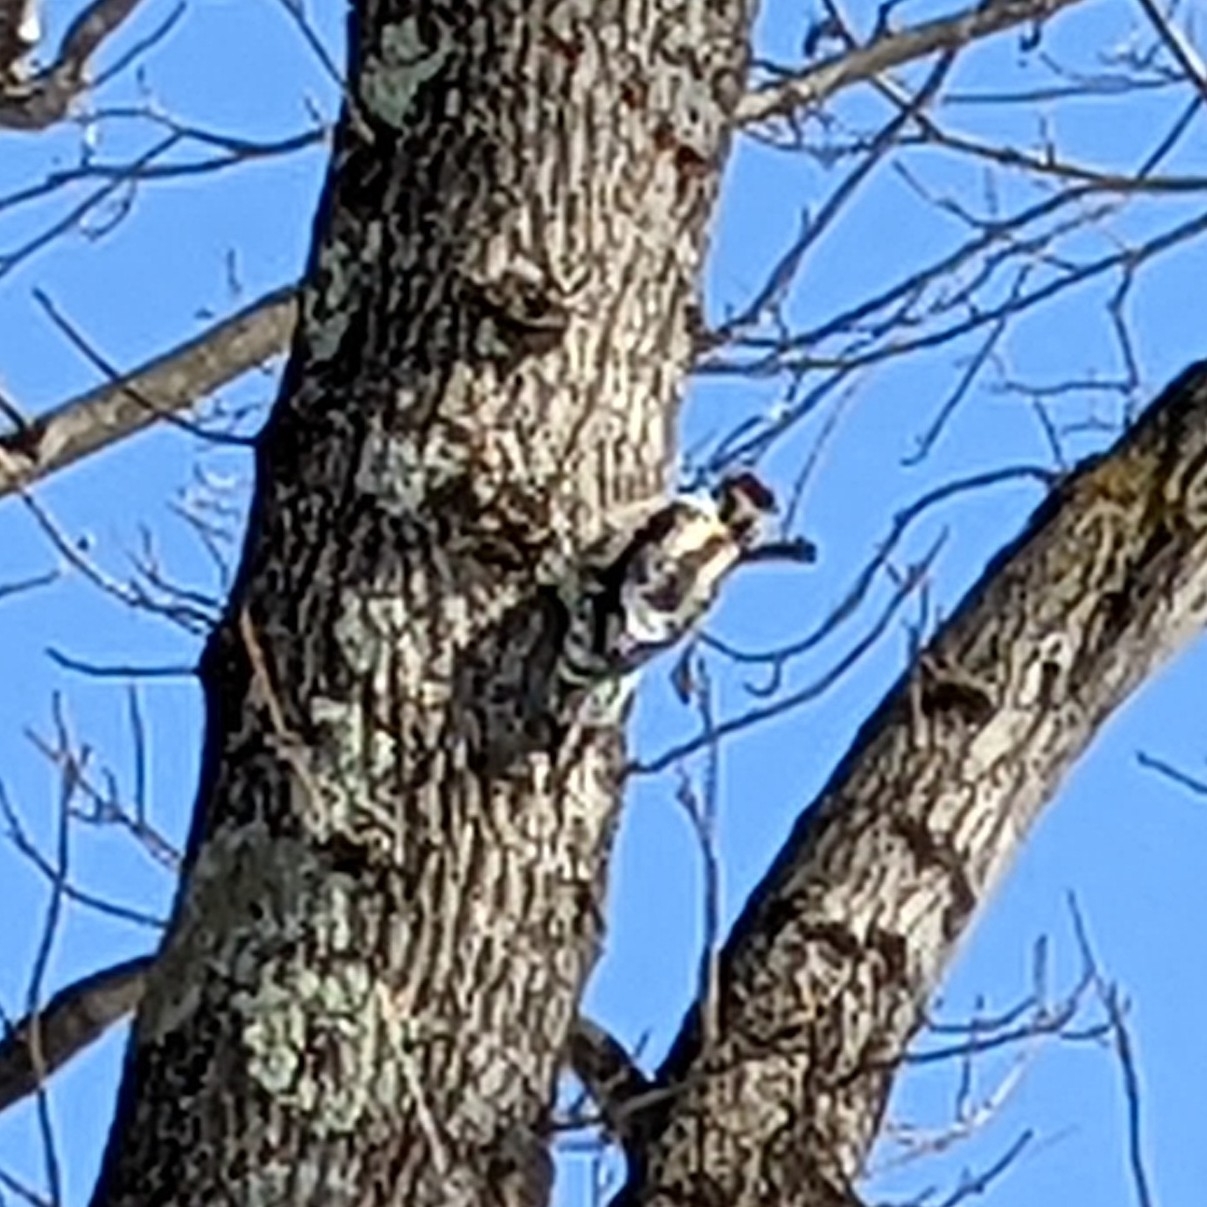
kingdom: Animalia
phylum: Chordata
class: Aves
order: Piciformes
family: Picidae
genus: Sphyrapicus
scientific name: Sphyrapicus varius
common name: Yellow-bellied sapsucker
